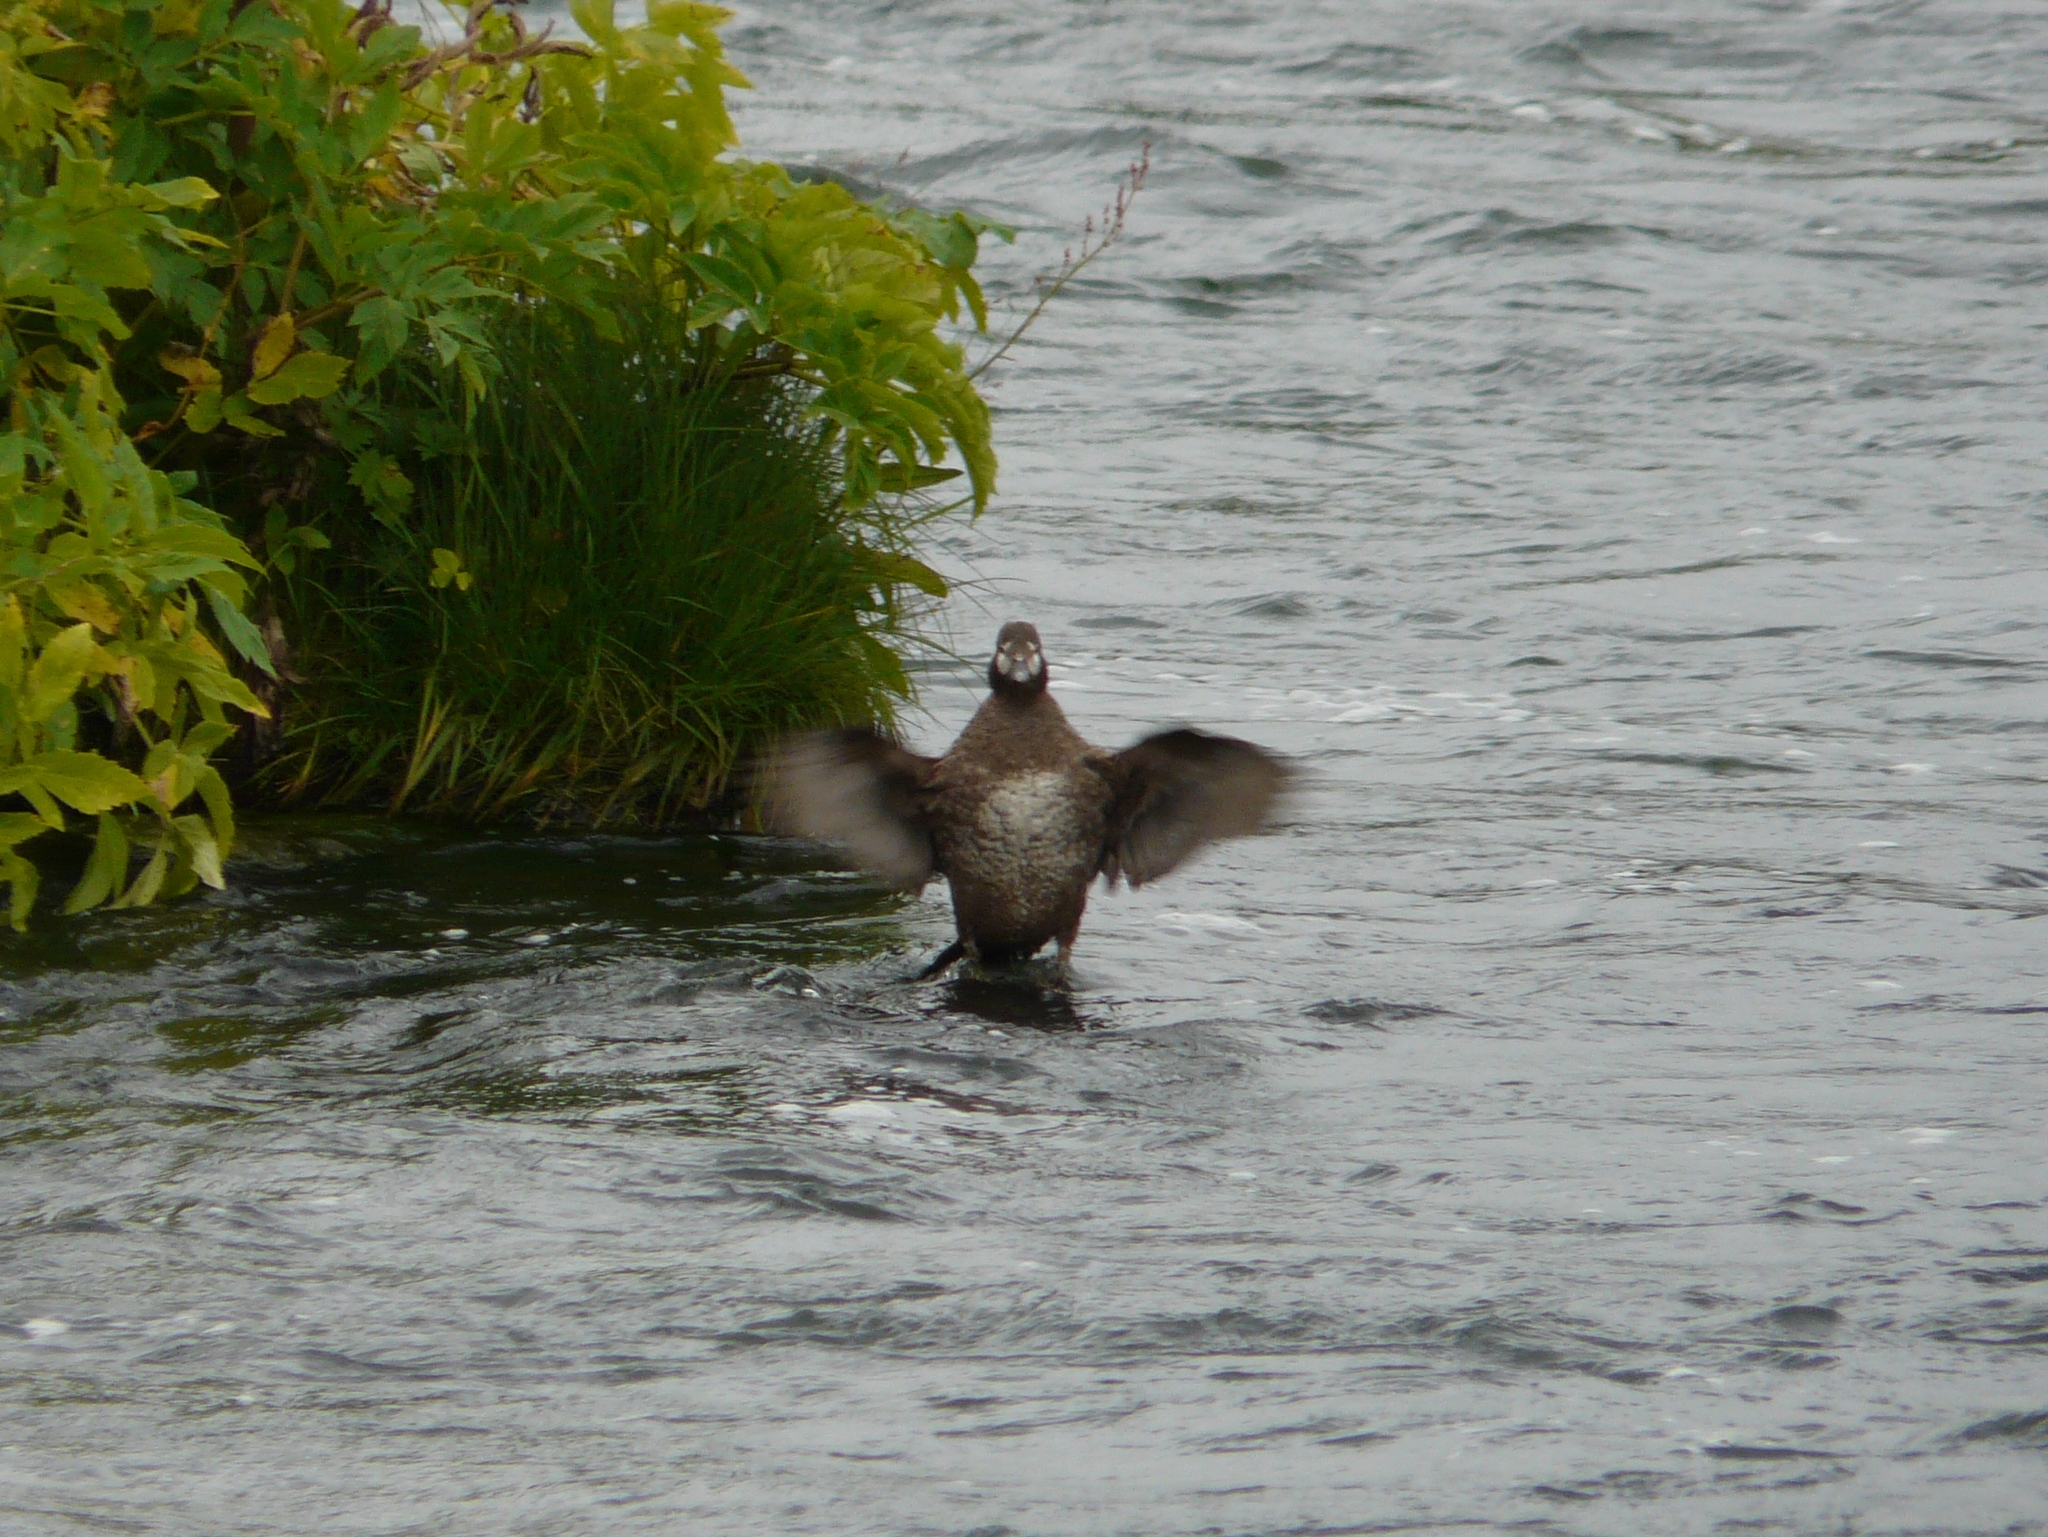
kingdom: Animalia
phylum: Chordata
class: Aves
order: Anseriformes
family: Anatidae
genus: Histrionicus
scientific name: Histrionicus histrionicus
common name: Harlequin duck
